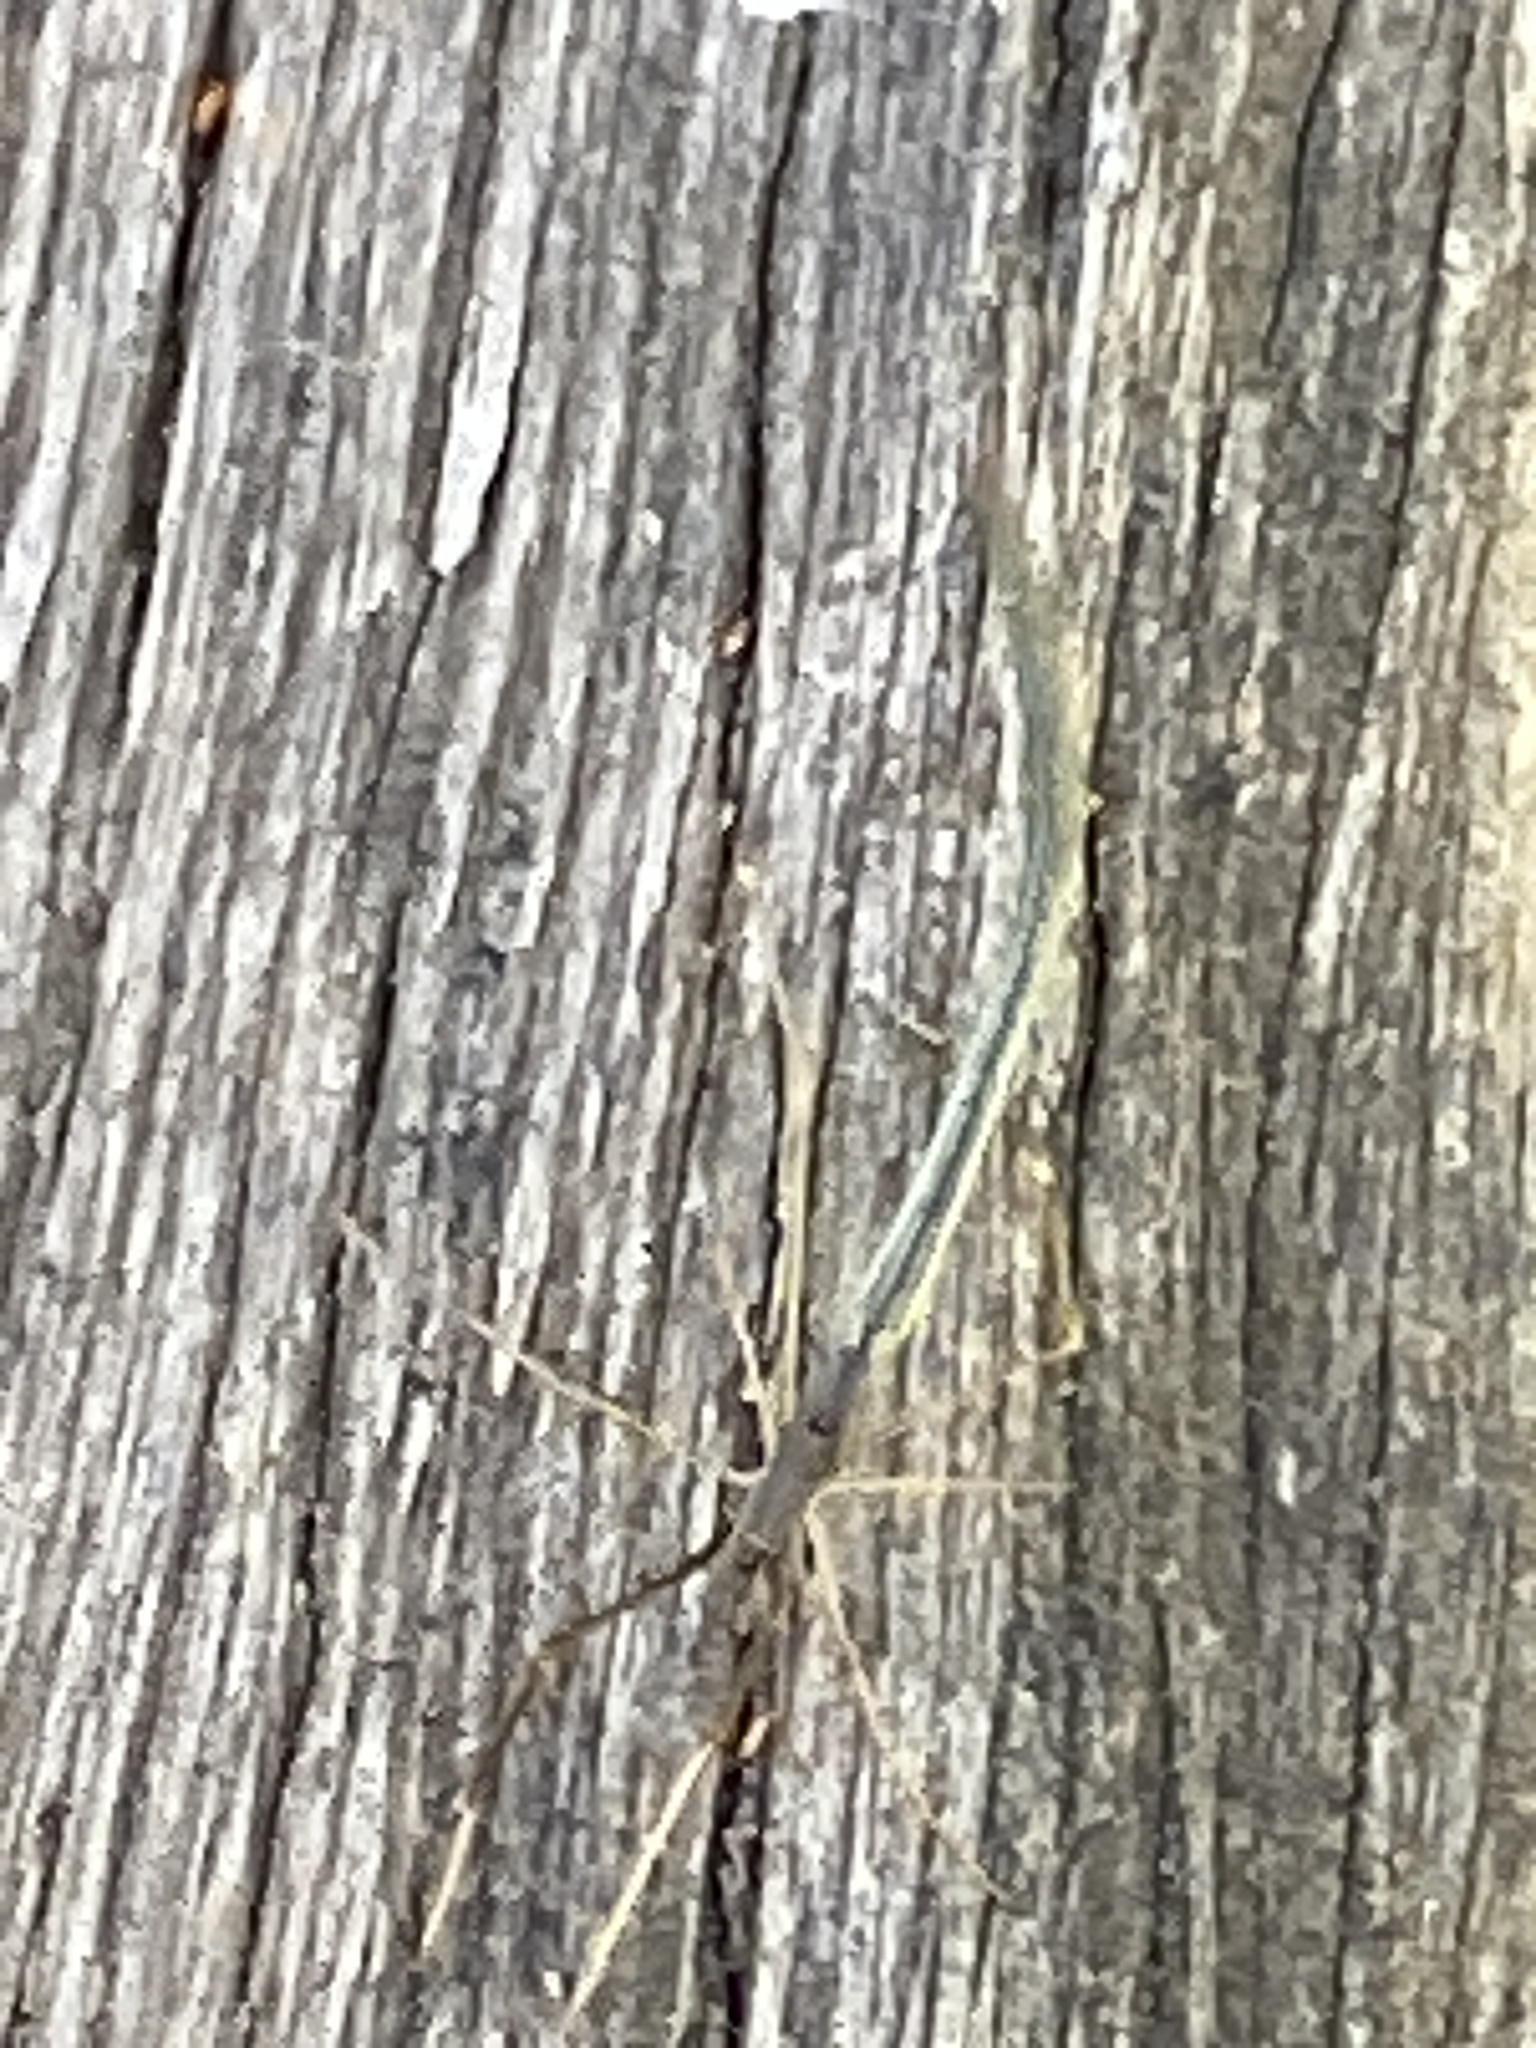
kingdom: Animalia
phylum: Arthropoda
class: Arachnida
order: Araneae
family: Theridiidae
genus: Ariamnes
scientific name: Ariamnes colubrinus
